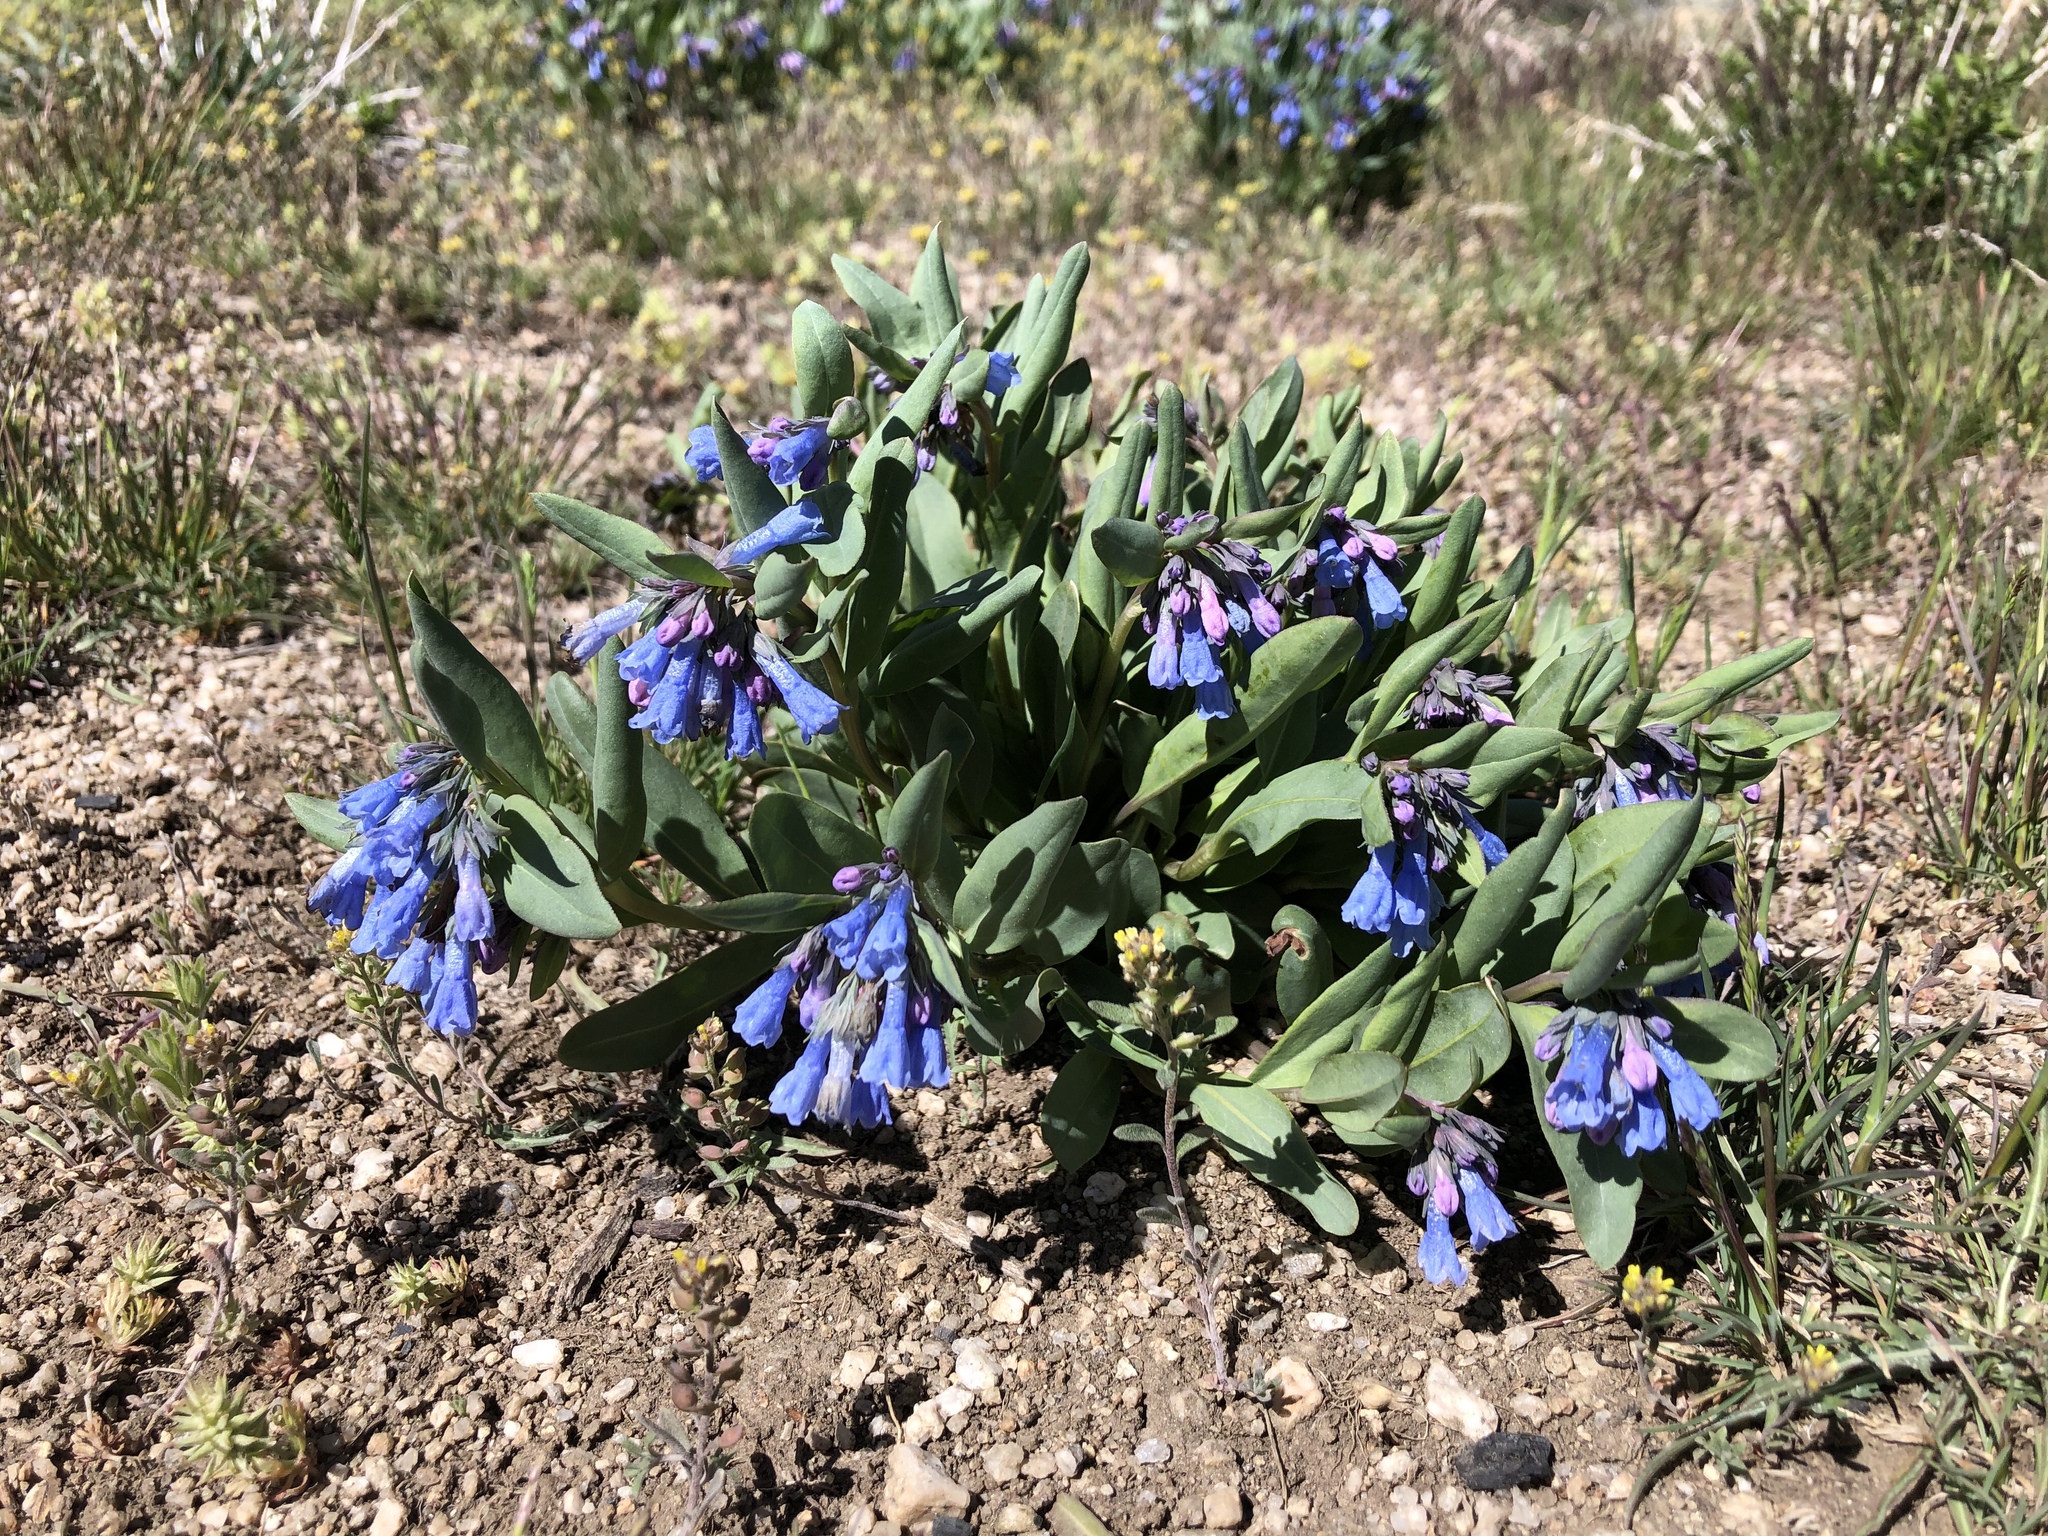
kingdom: Plantae
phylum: Tracheophyta
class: Magnoliopsida
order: Boraginales
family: Boraginaceae
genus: Mertensia
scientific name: Mertensia oblongifolia
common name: Sagebrush bluebells
